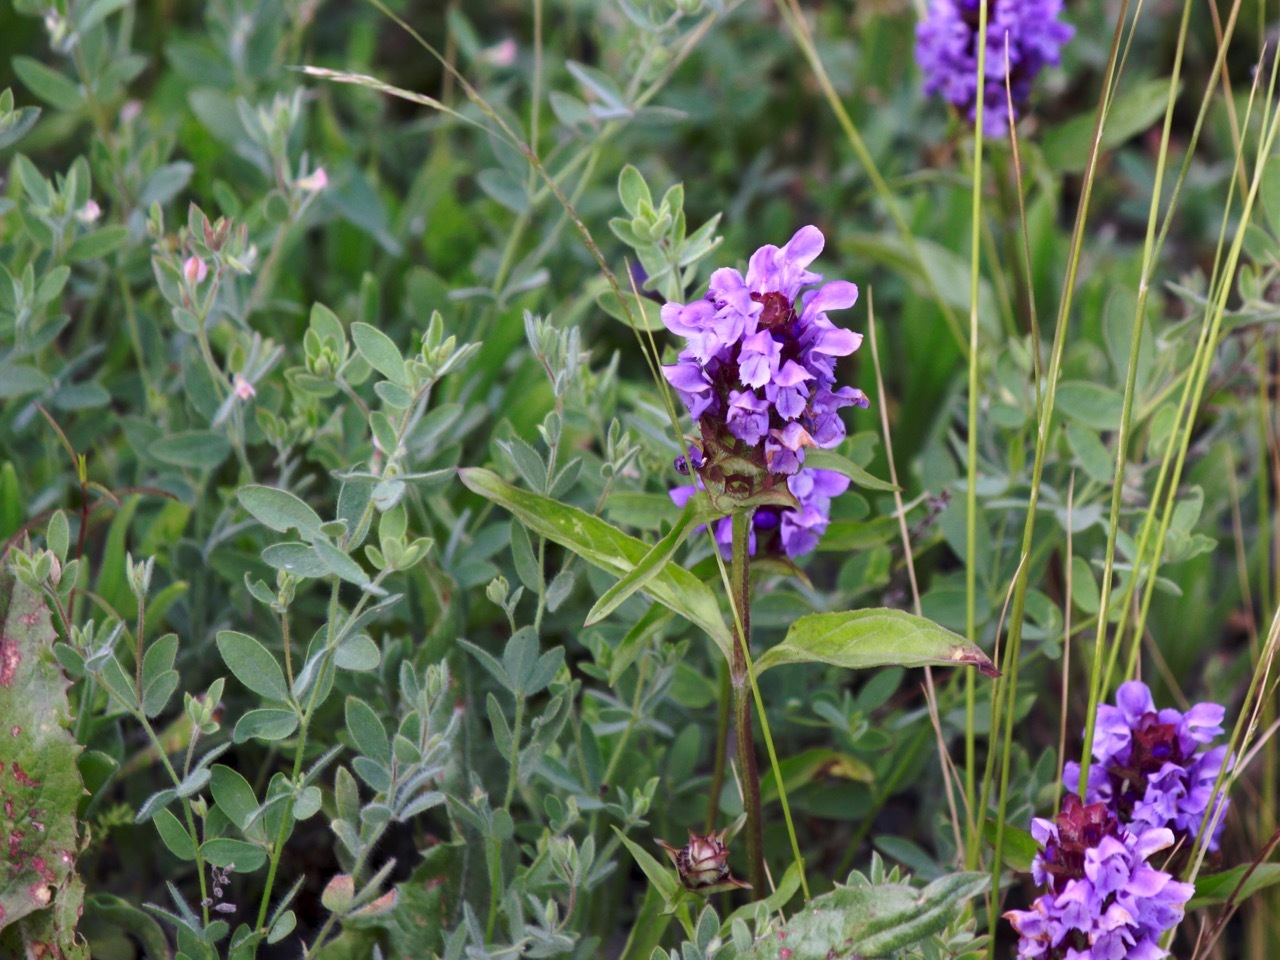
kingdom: Plantae
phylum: Tracheophyta
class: Magnoliopsida
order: Lamiales
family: Lamiaceae
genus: Prunella
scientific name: Prunella vulgaris
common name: Heal-all
